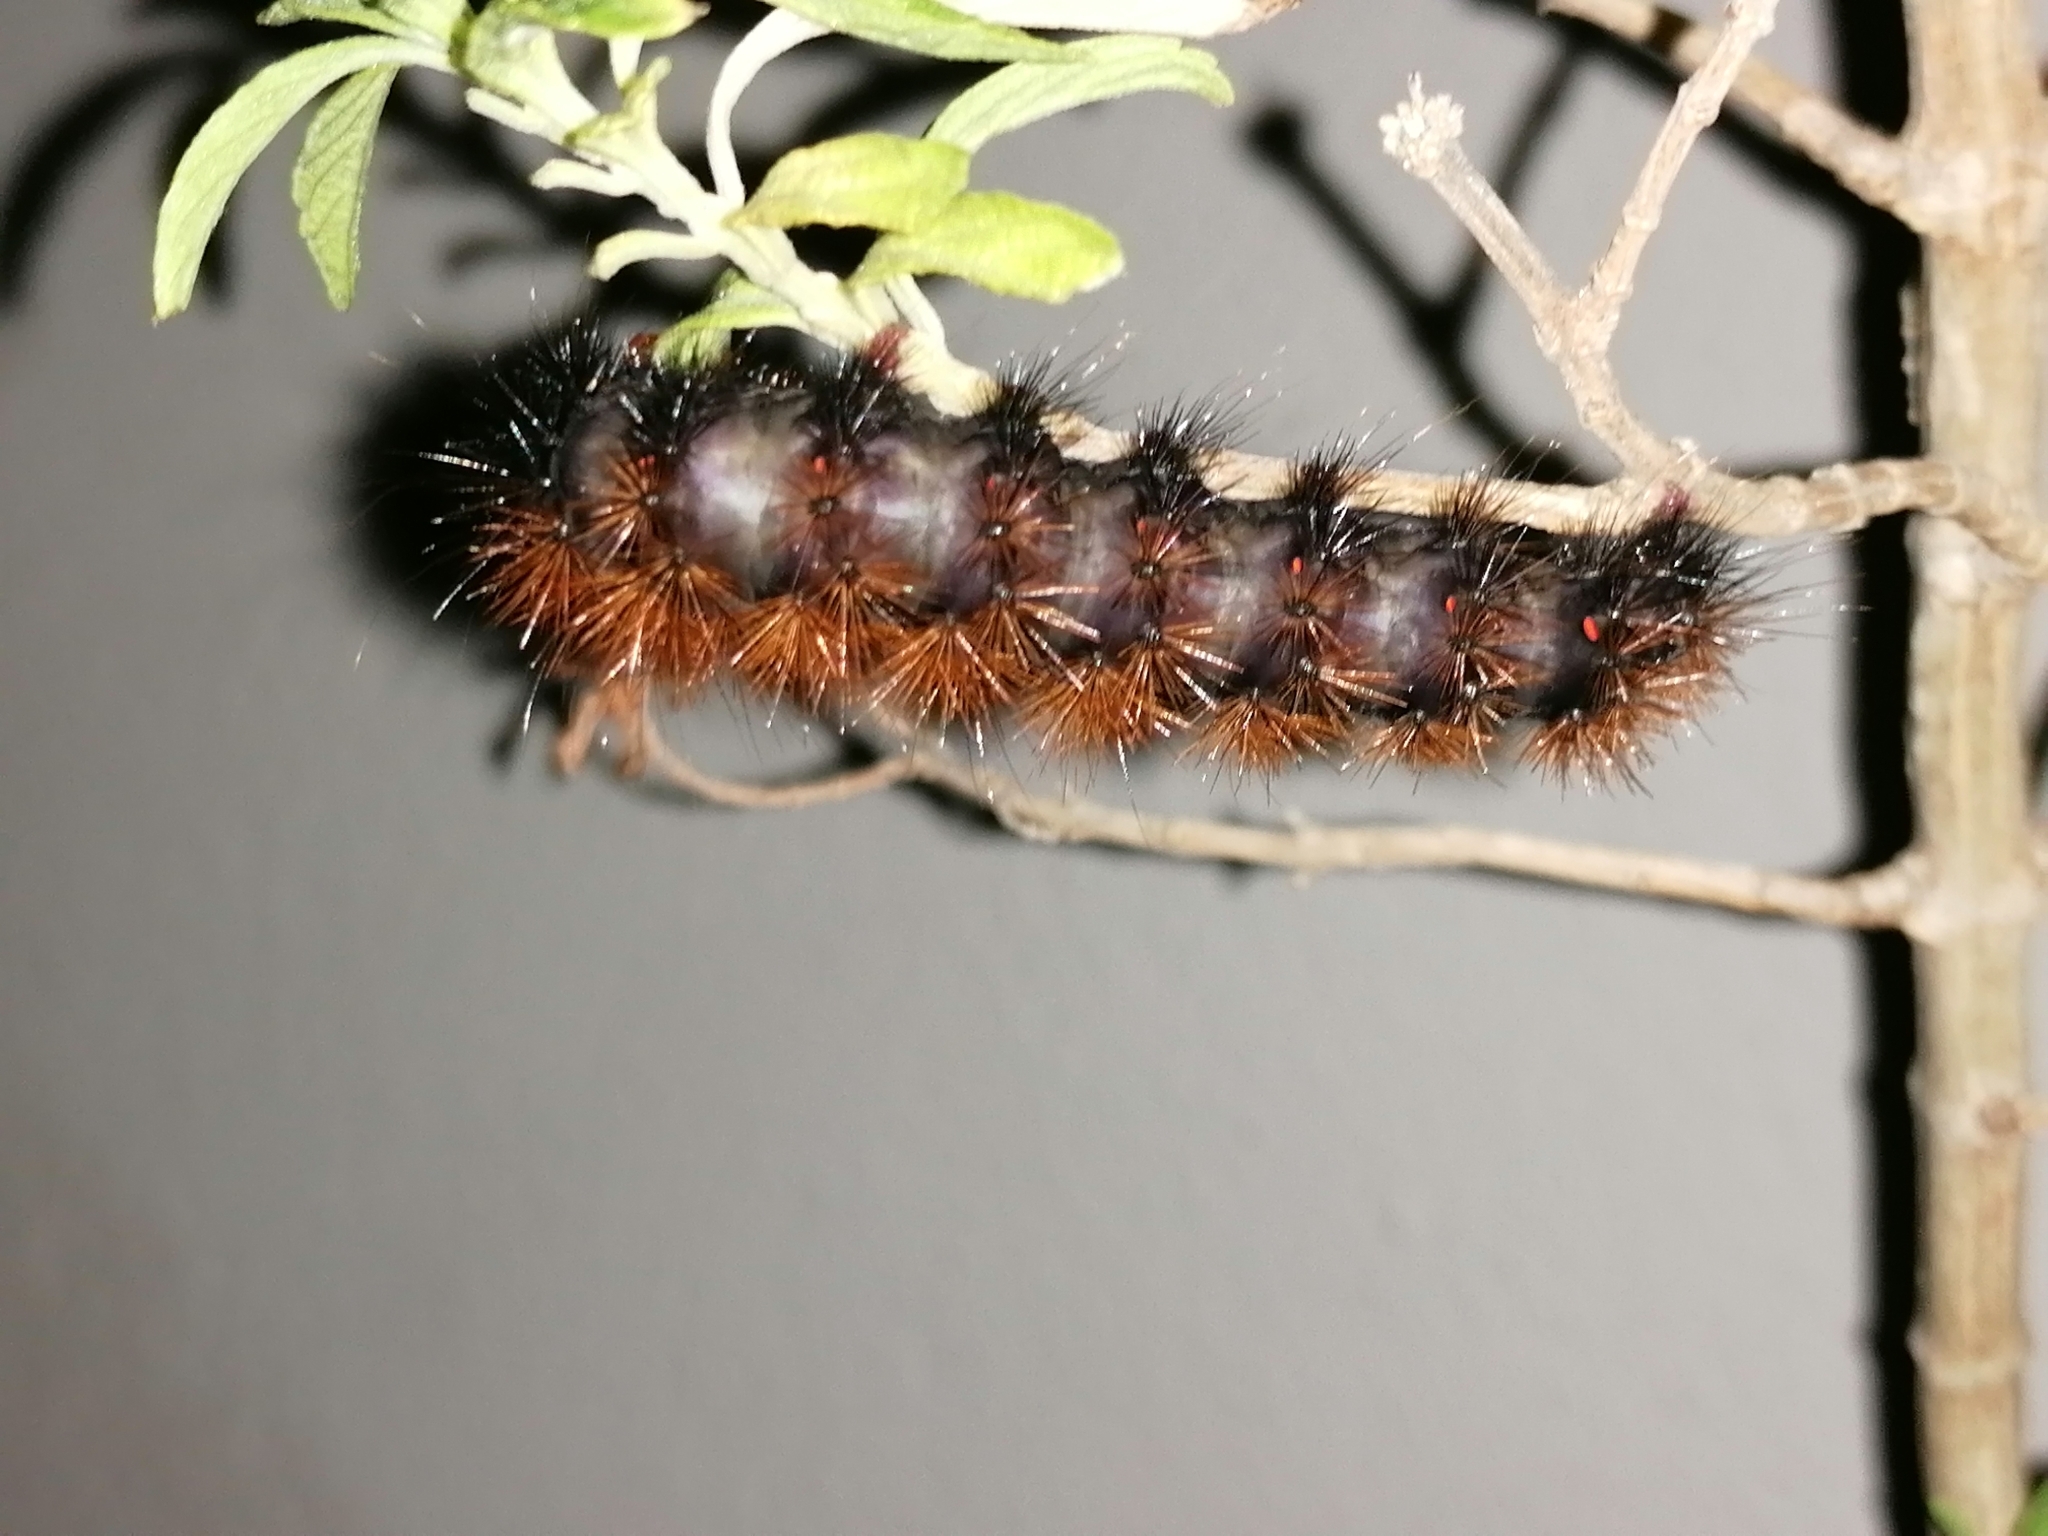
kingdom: Animalia
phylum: Arthropoda
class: Insecta
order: Lepidoptera
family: Erebidae
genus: Rhodogastria
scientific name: Rhodogastria amasis
